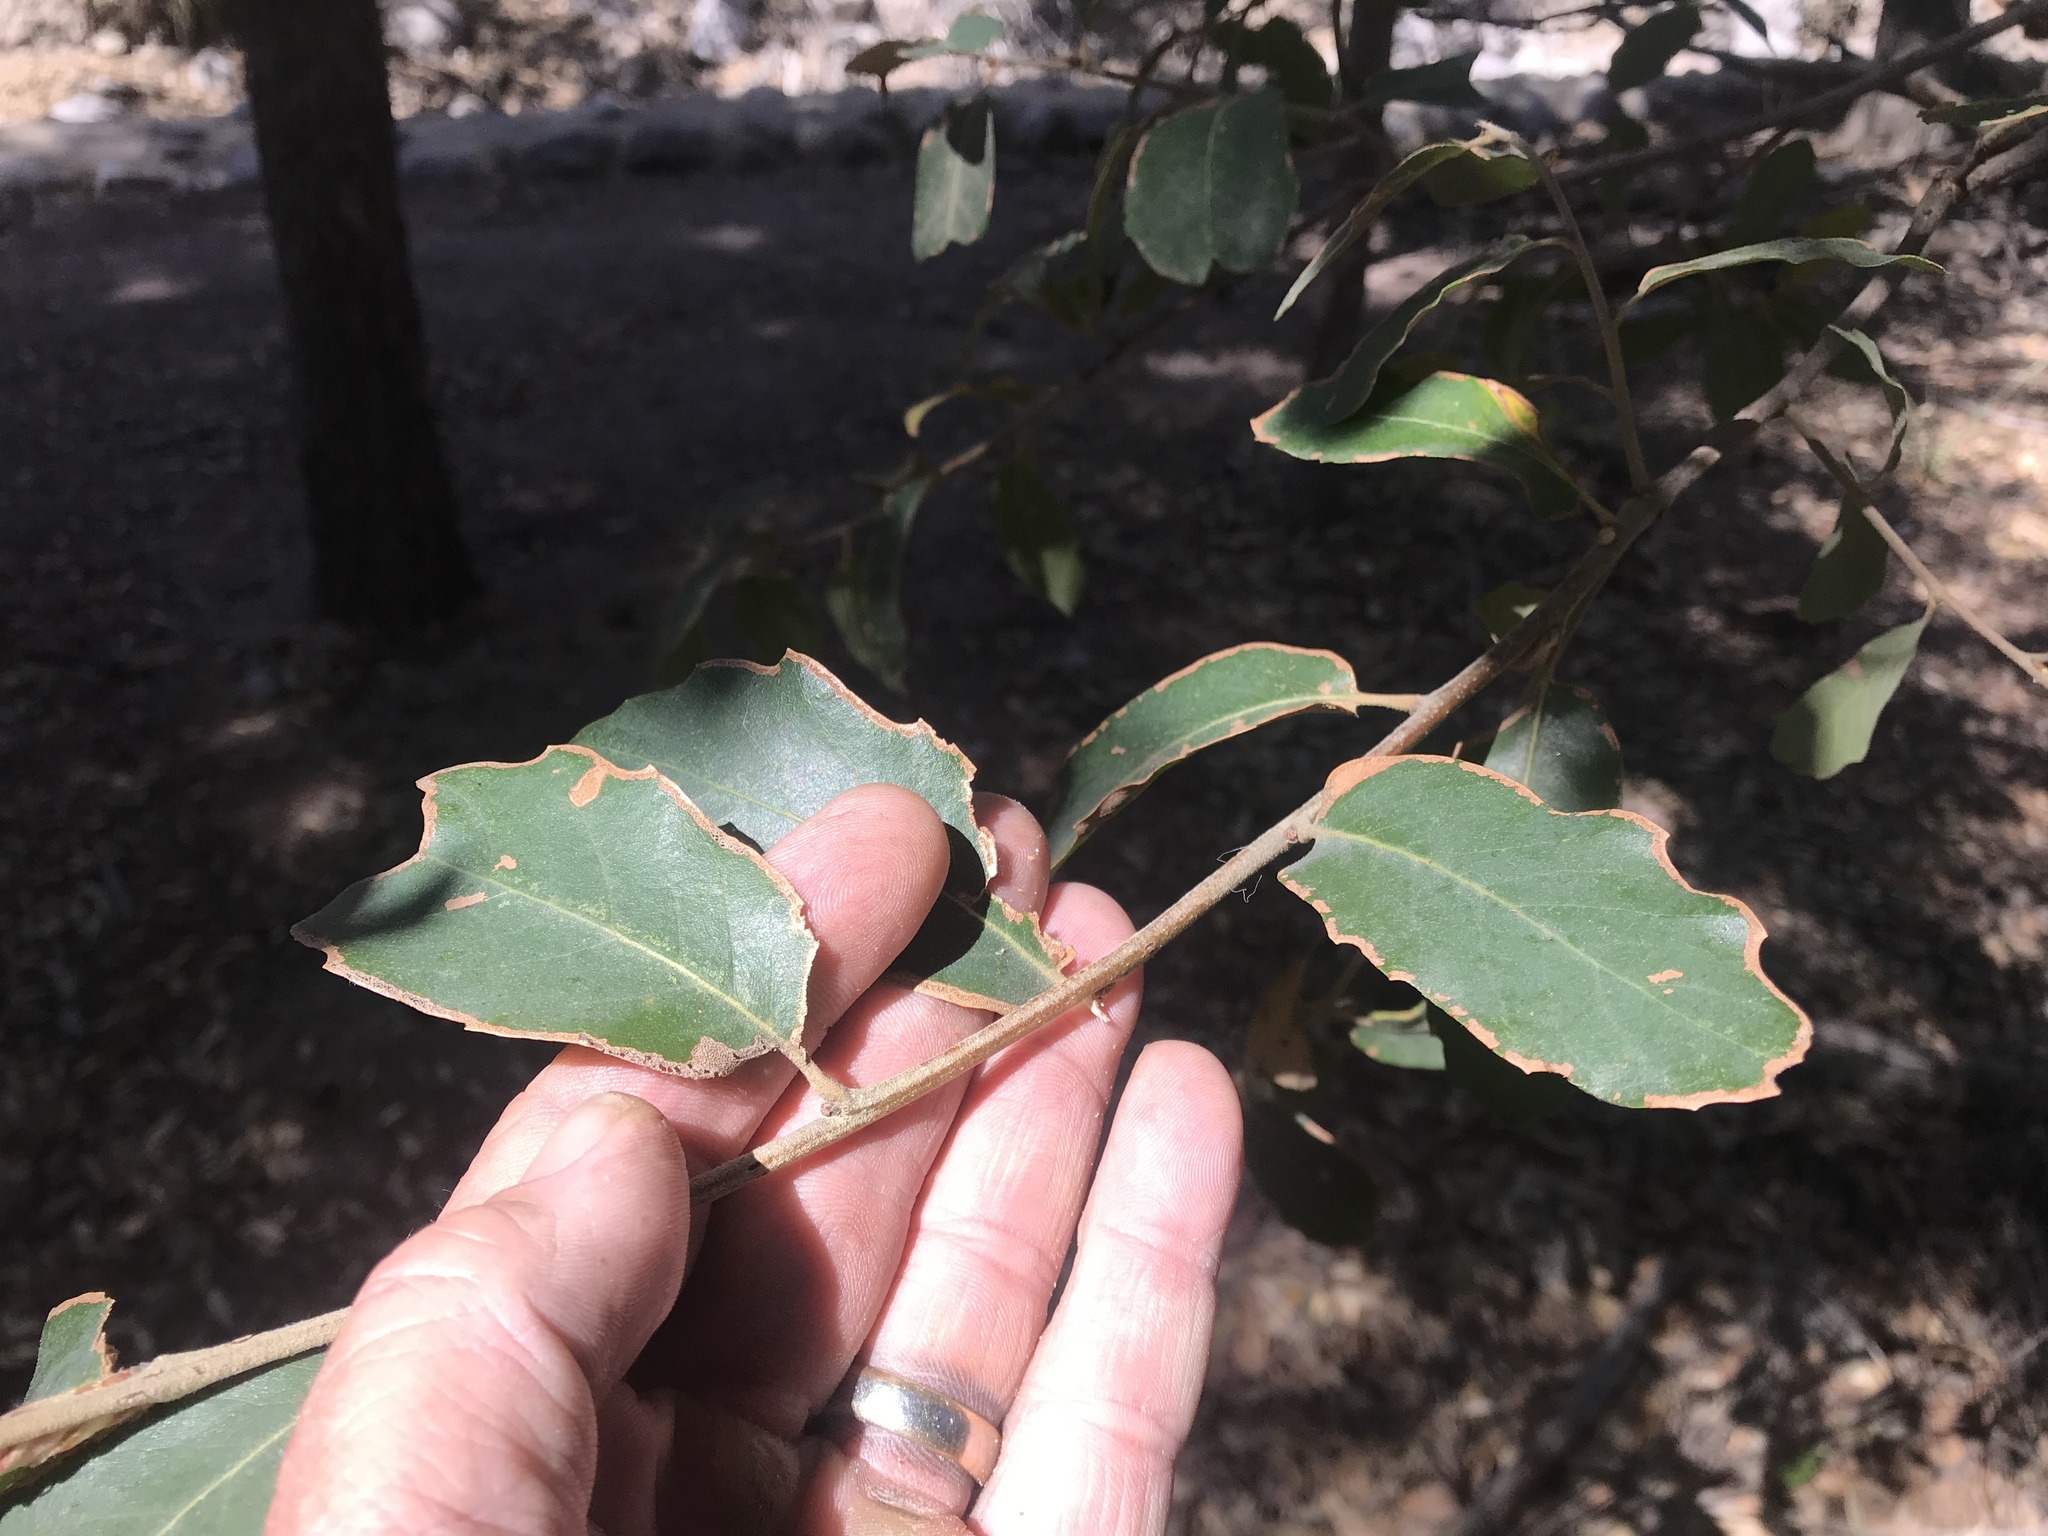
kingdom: Plantae
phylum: Tracheophyta
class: Magnoliopsida
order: Fagales
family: Fagaceae
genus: Quercus
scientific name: Quercus arizonica
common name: Arizona white oak
